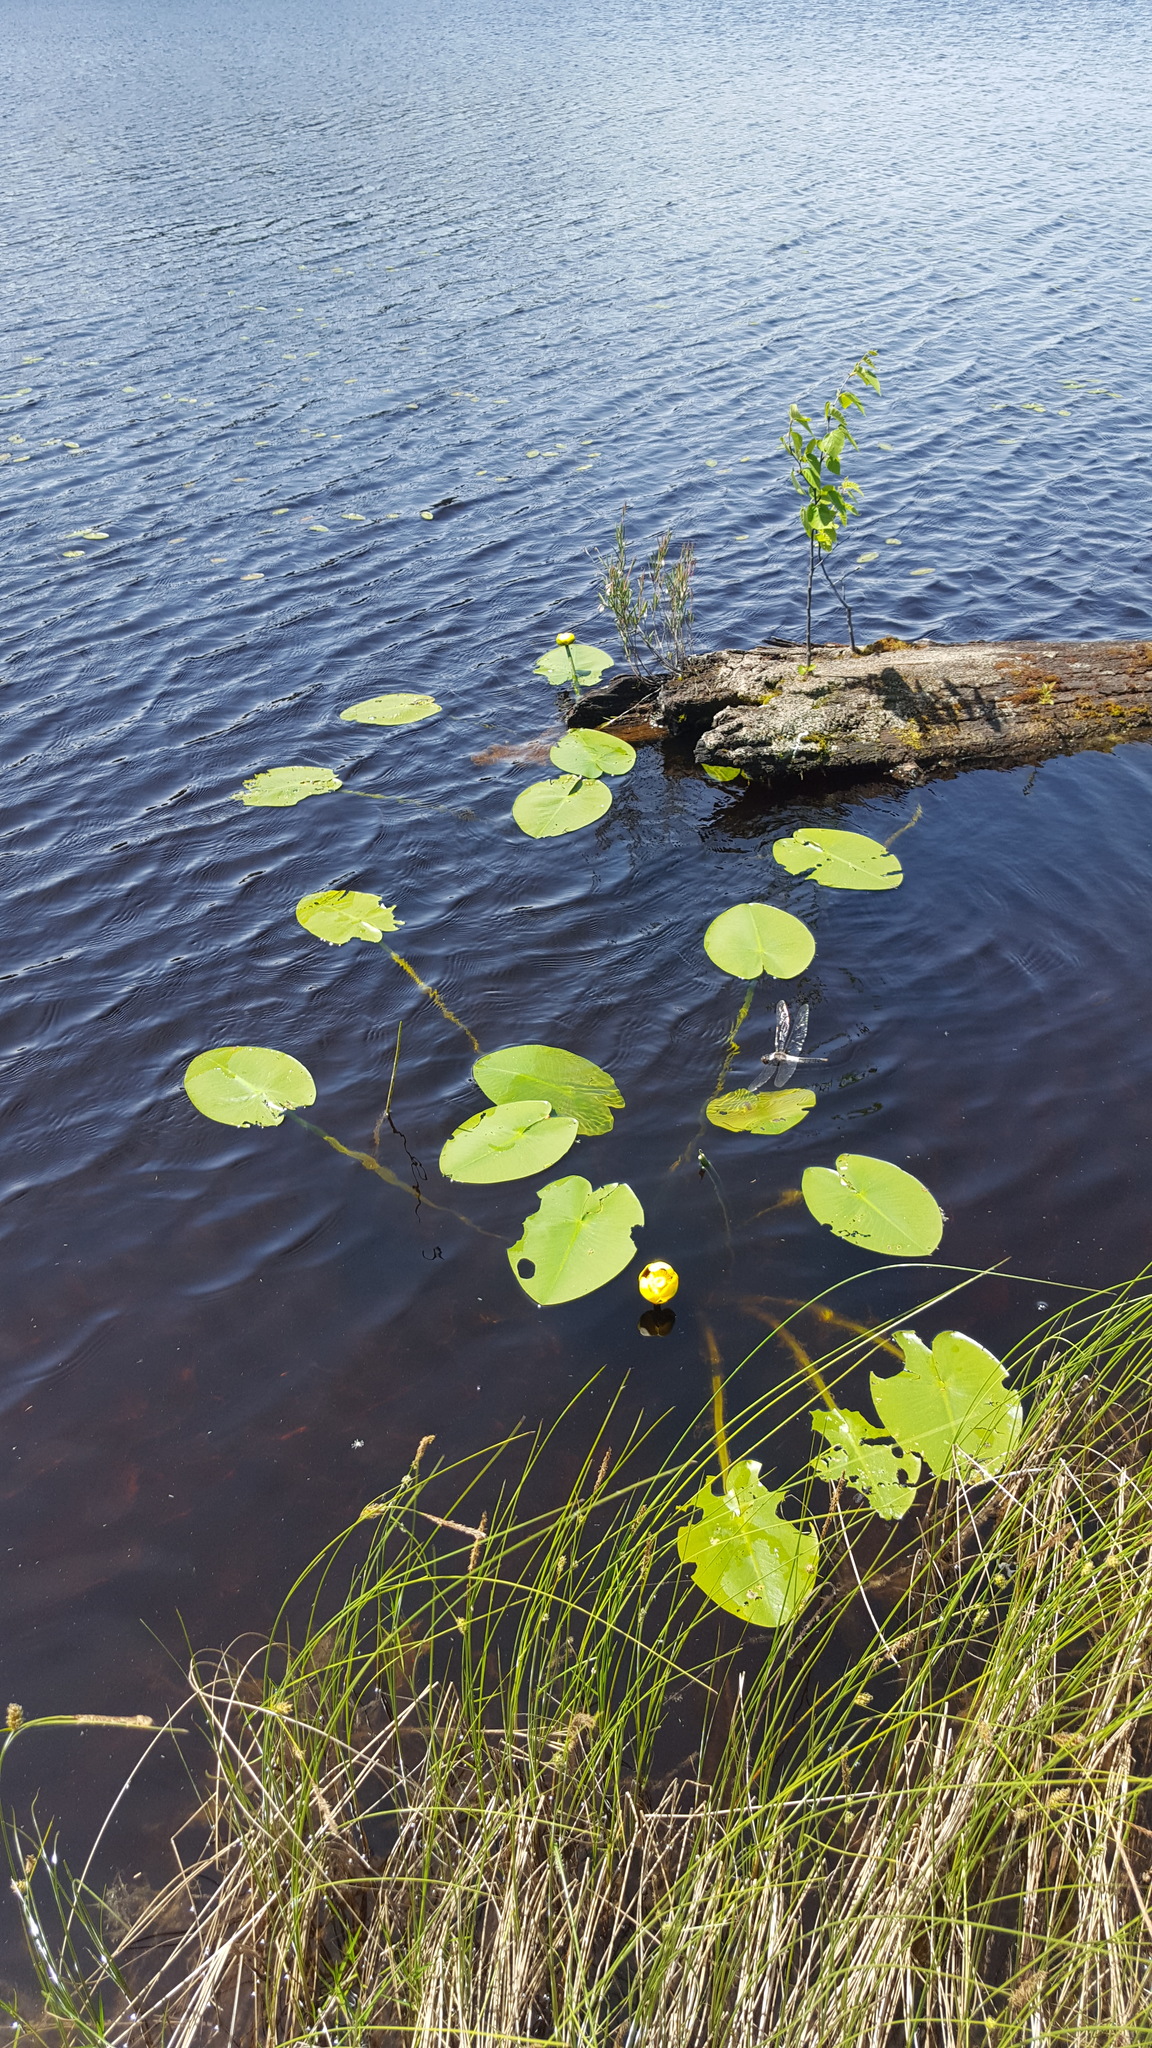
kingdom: Plantae
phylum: Tracheophyta
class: Magnoliopsida
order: Nymphaeales
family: Nymphaeaceae
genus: Nuphar
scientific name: Nuphar variegata
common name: Beaver-root
